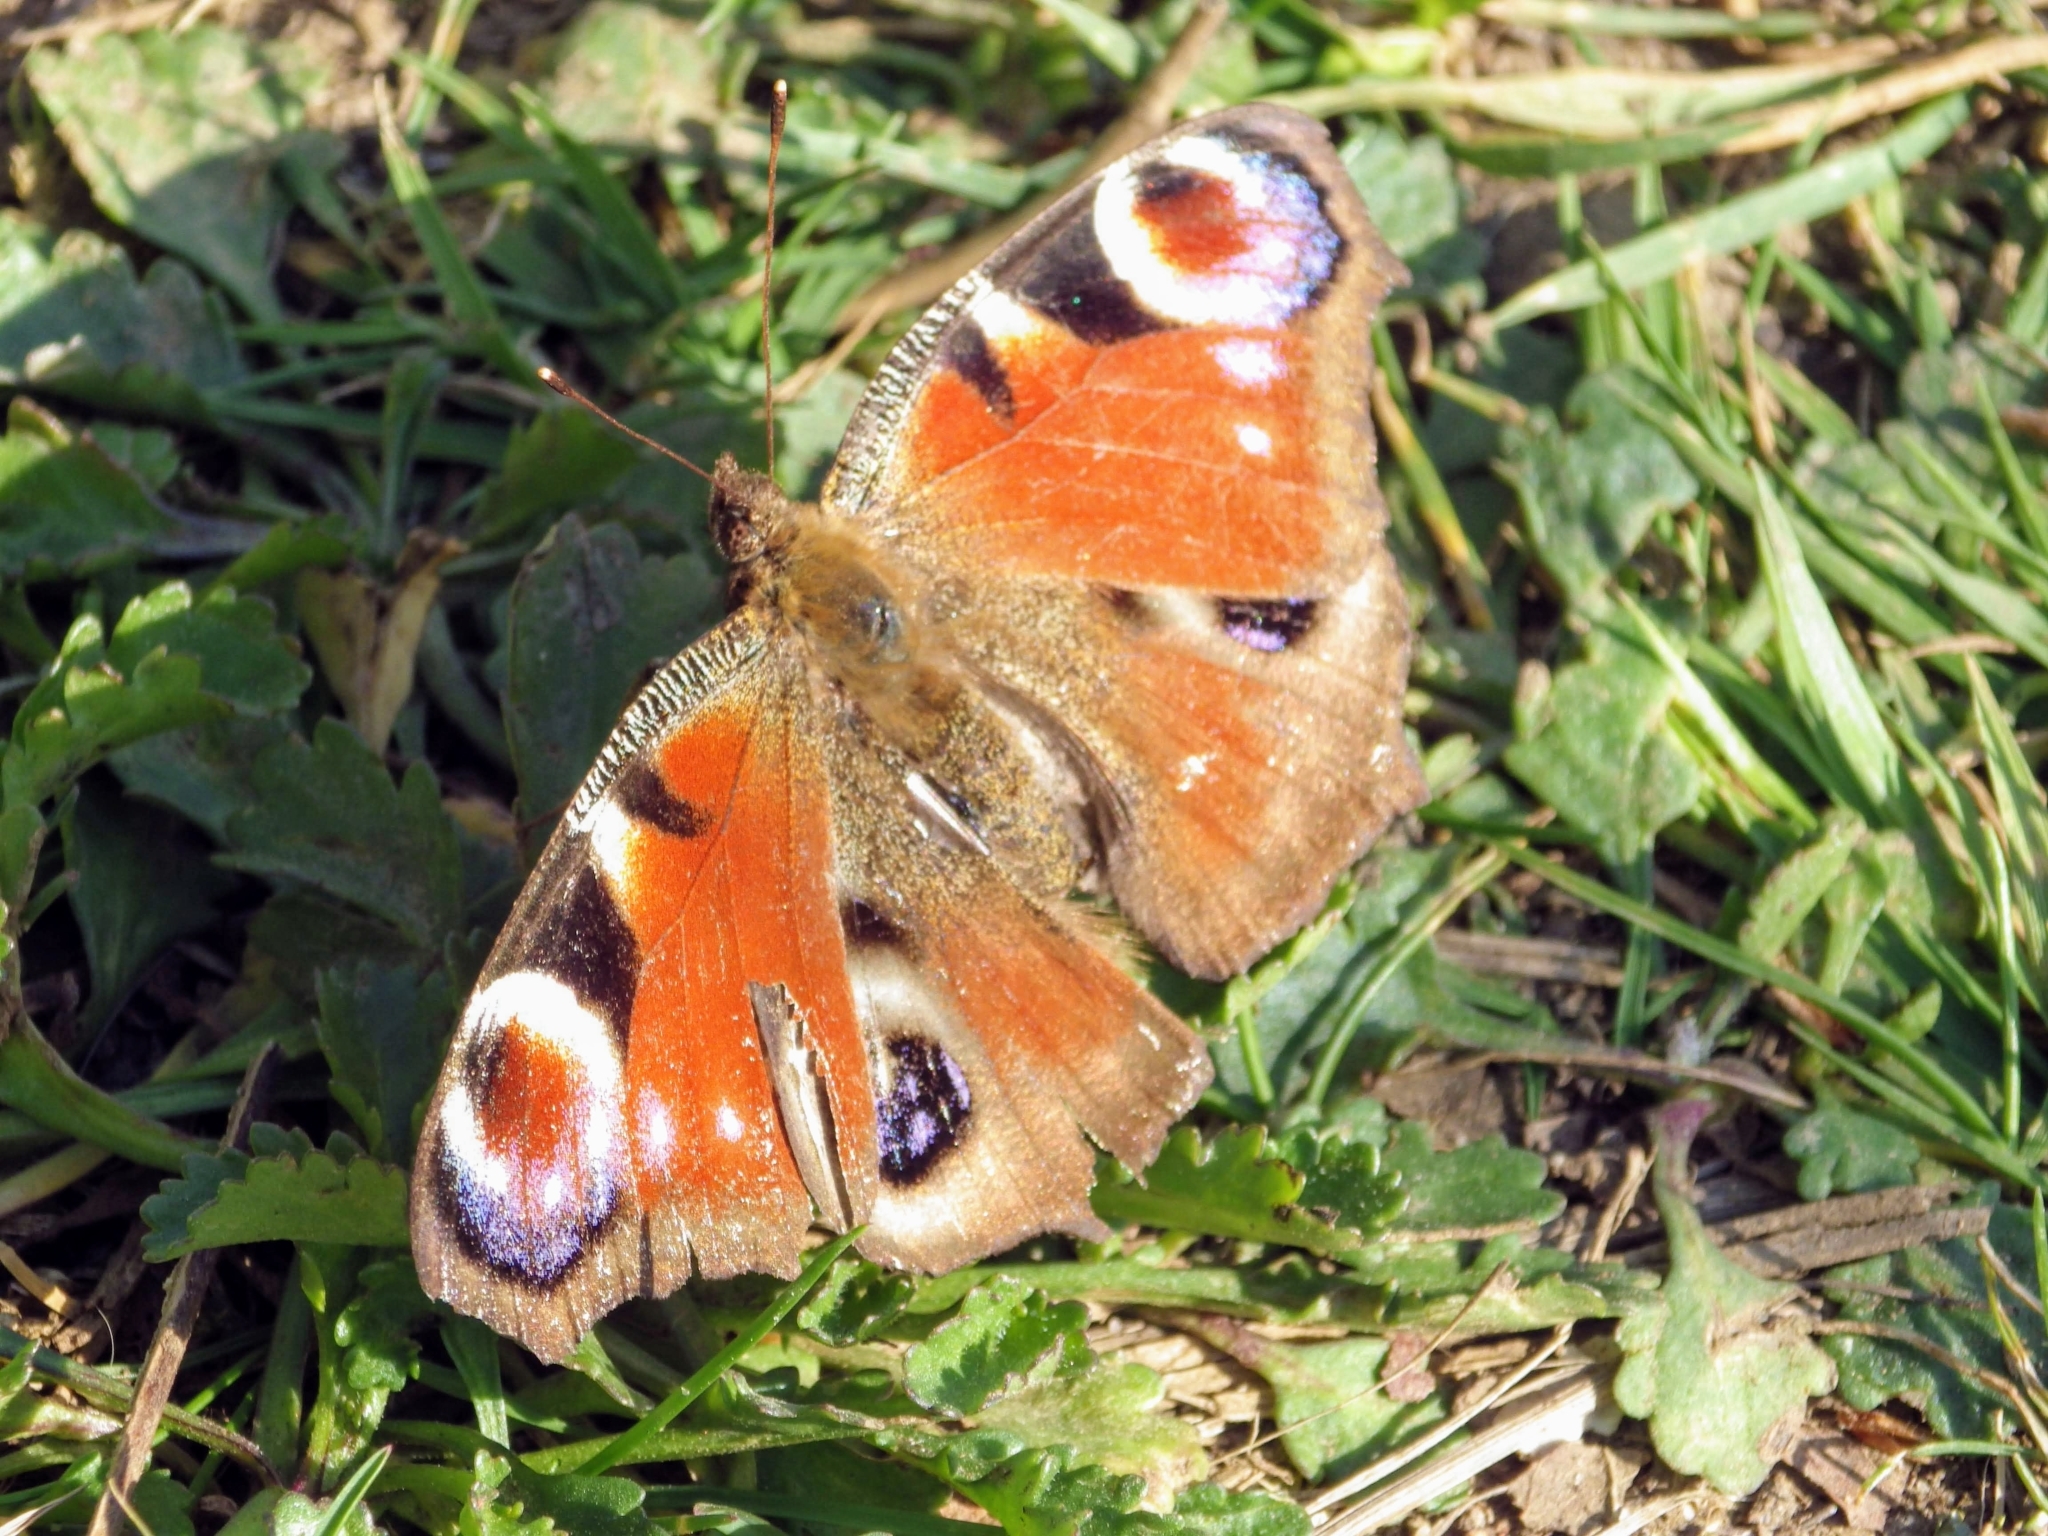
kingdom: Animalia
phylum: Arthropoda
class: Insecta
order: Lepidoptera
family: Nymphalidae
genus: Aglais
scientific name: Aglais io
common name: Peacock
